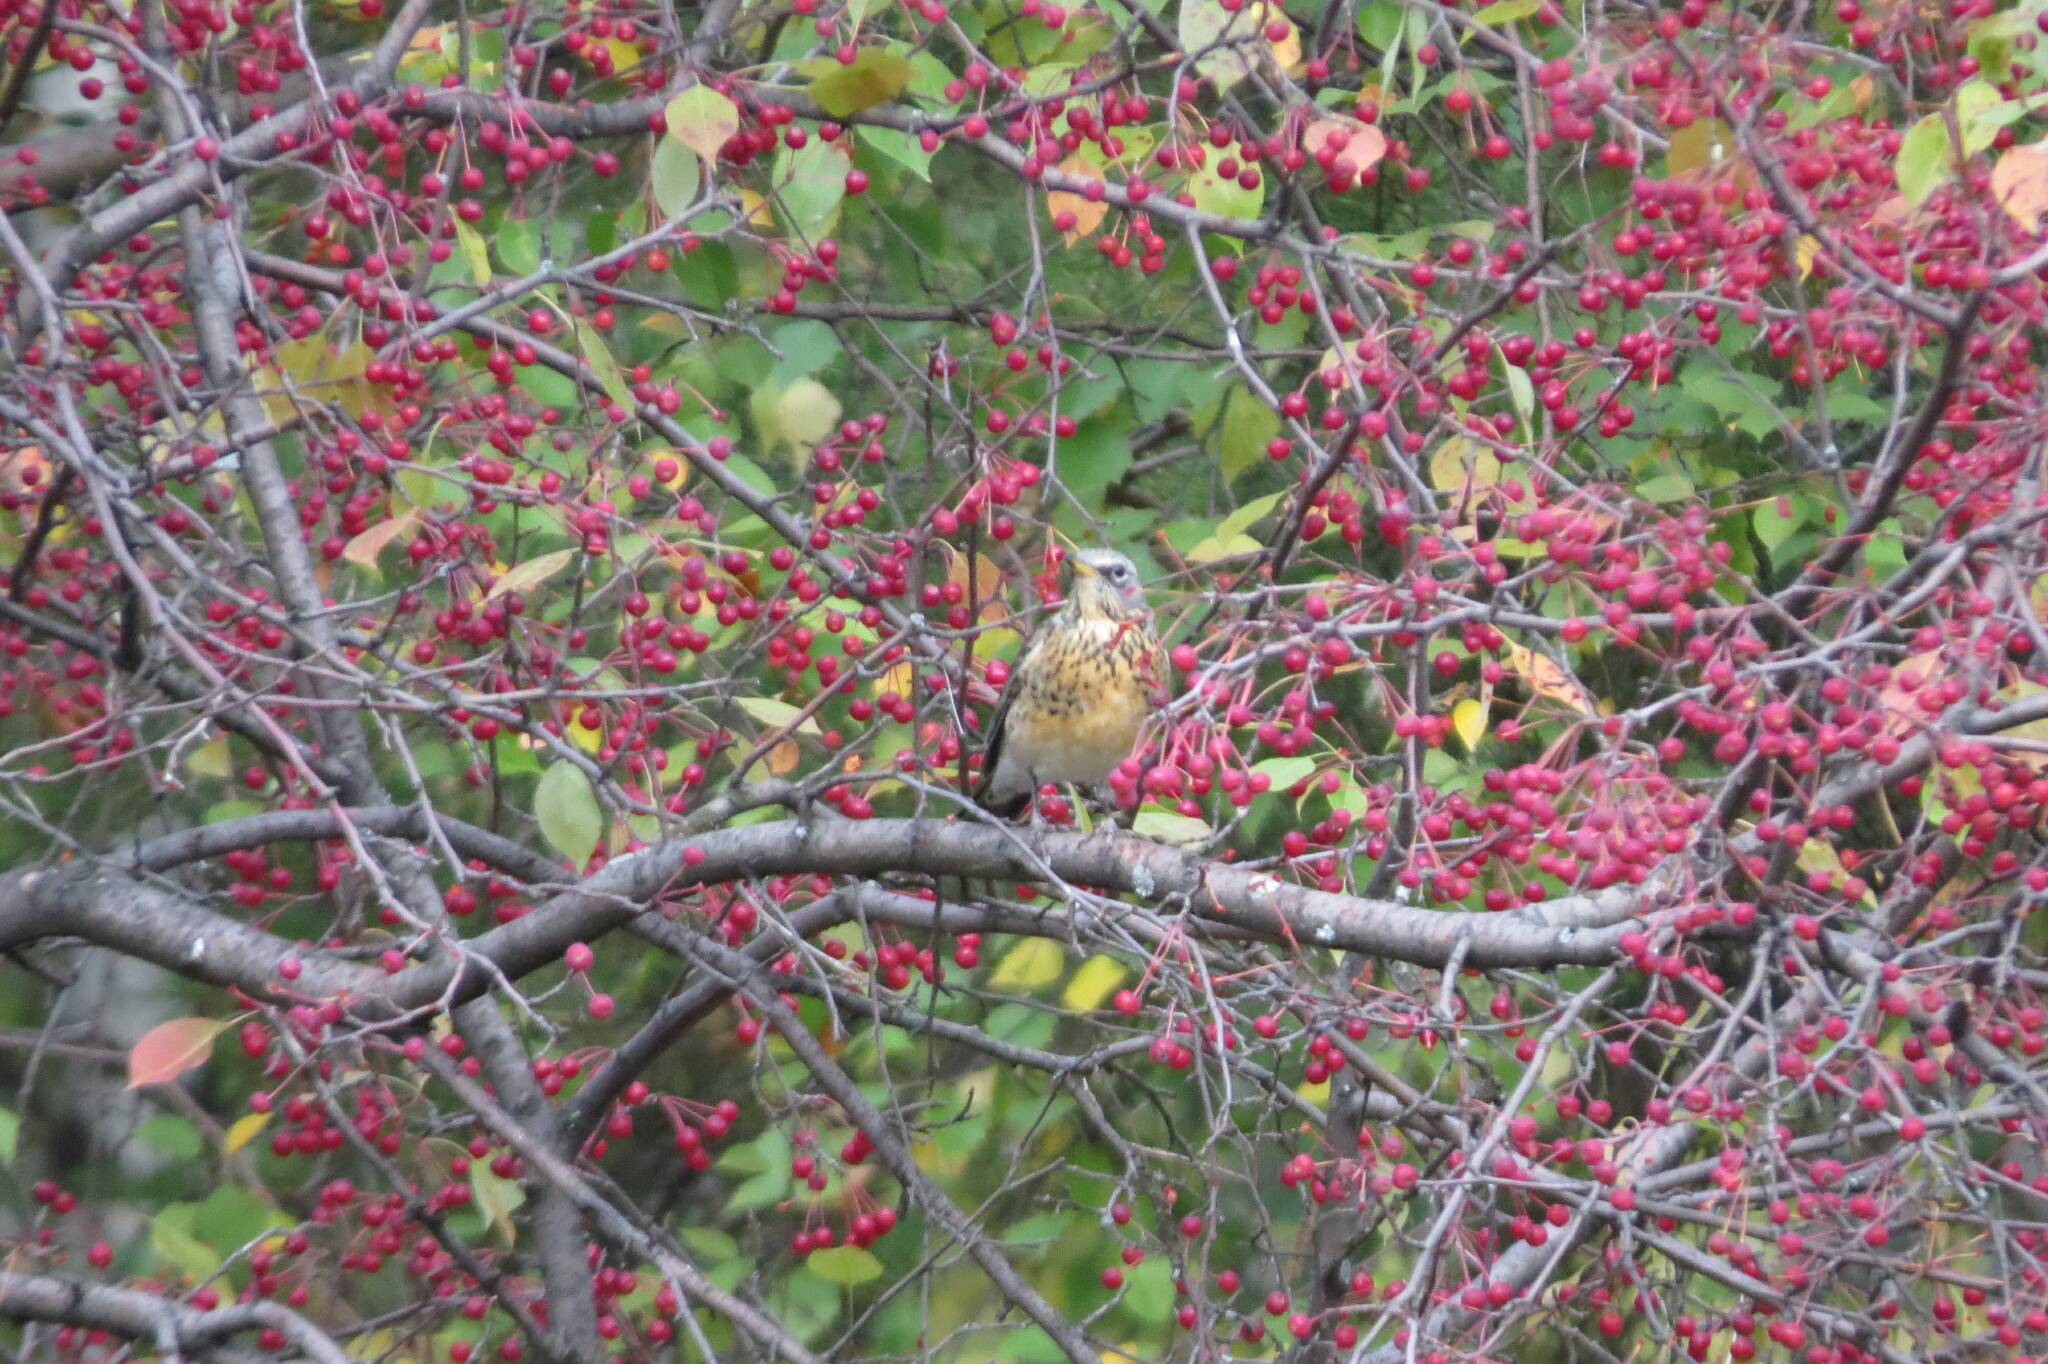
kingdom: Animalia
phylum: Chordata
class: Aves
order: Passeriformes
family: Turdidae
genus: Turdus
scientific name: Turdus pilaris
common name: Fieldfare
